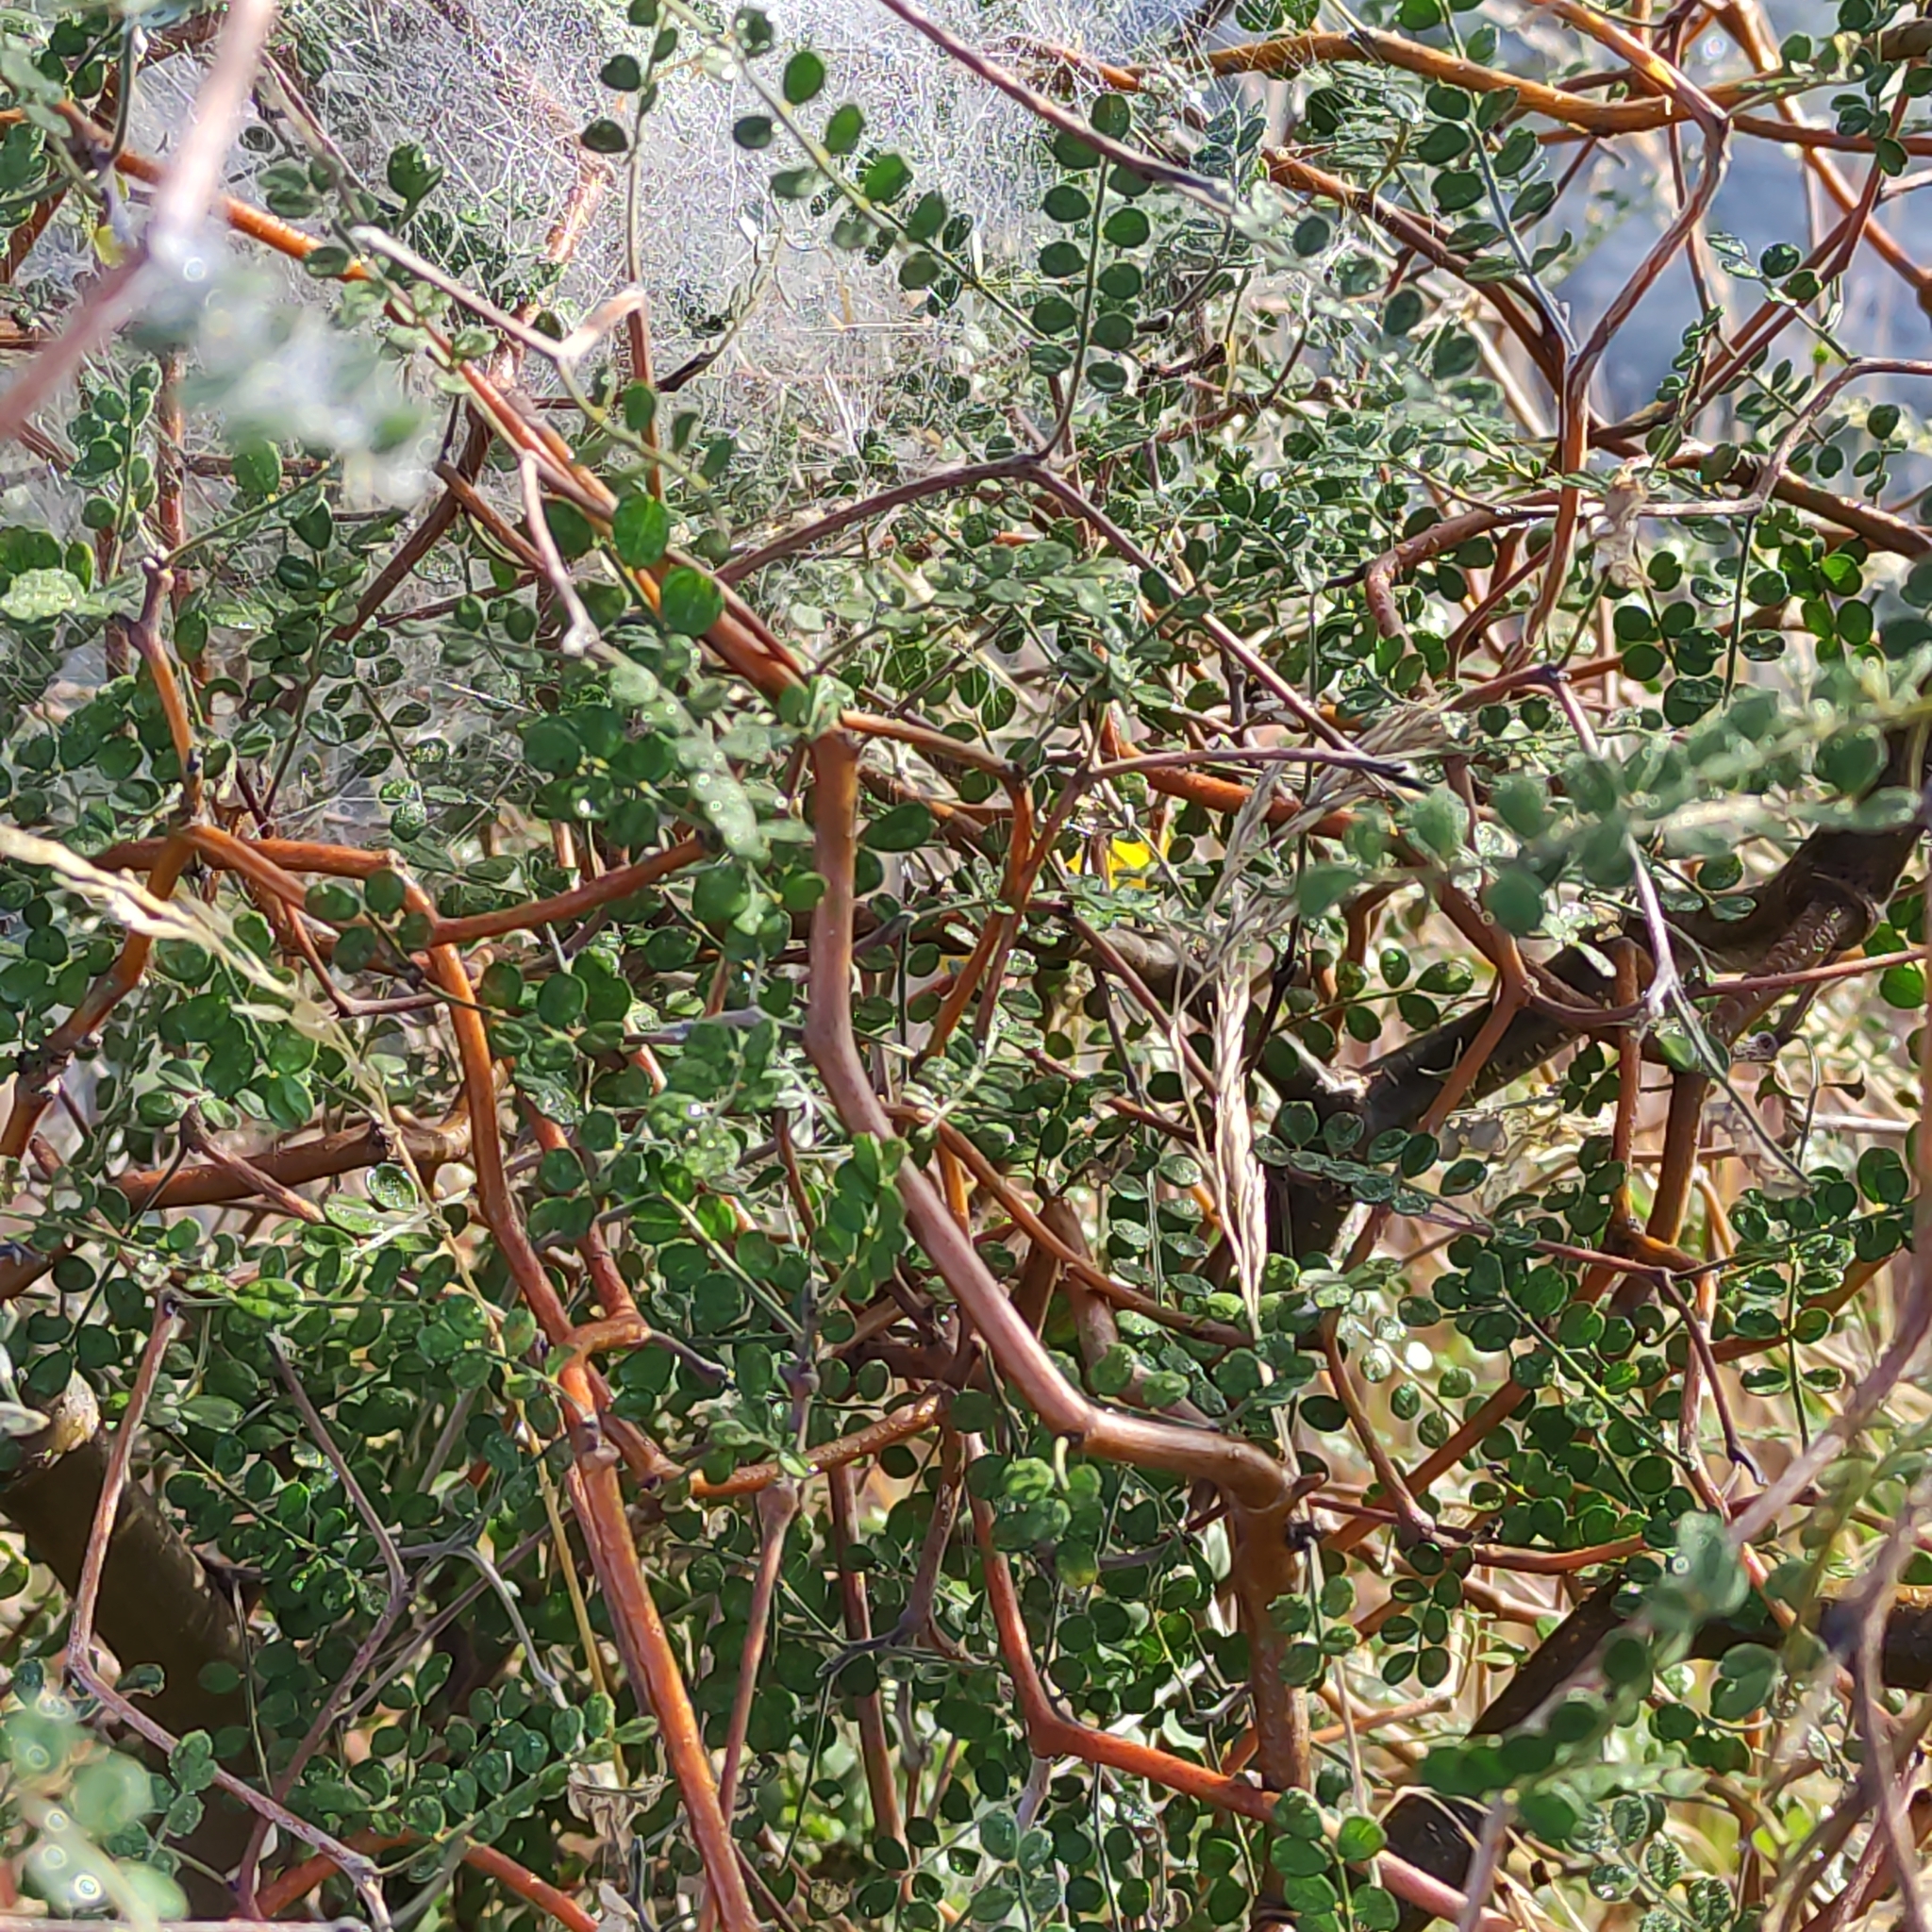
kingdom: Plantae
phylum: Tracheophyta
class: Magnoliopsida
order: Fabales
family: Fabaceae
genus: Sophora
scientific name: Sophora microphylla
